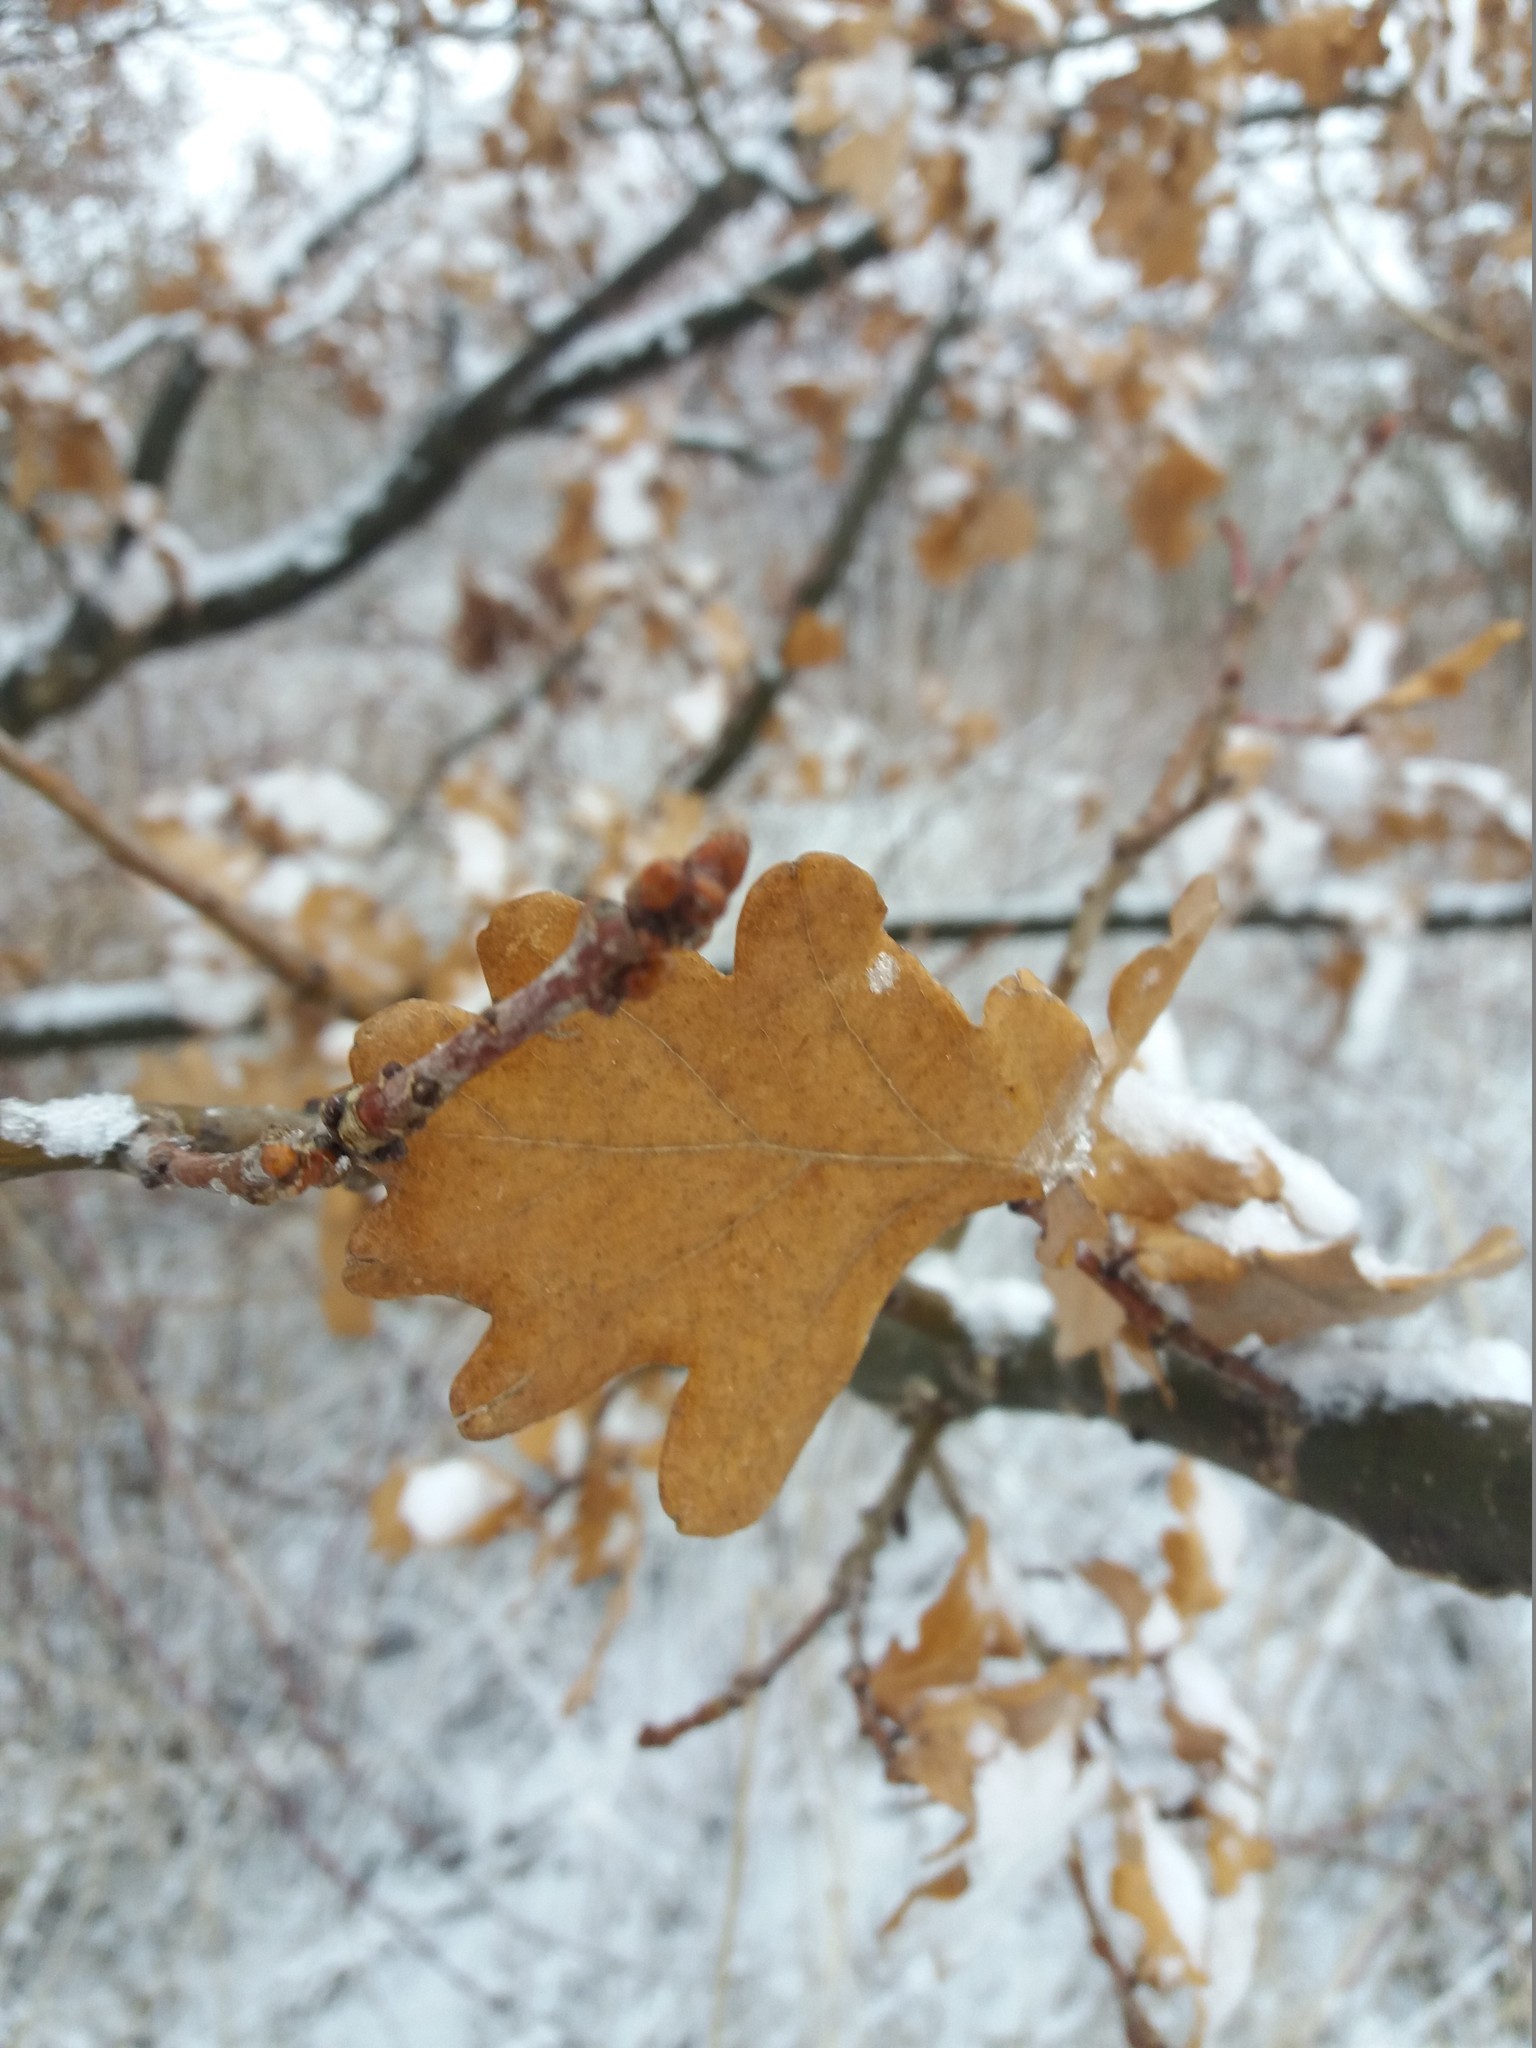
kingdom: Plantae
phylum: Tracheophyta
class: Magnoliopsida
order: Fagales
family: Fagaceae
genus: Quercus
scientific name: Quercus robur
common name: Pedunculate oak
